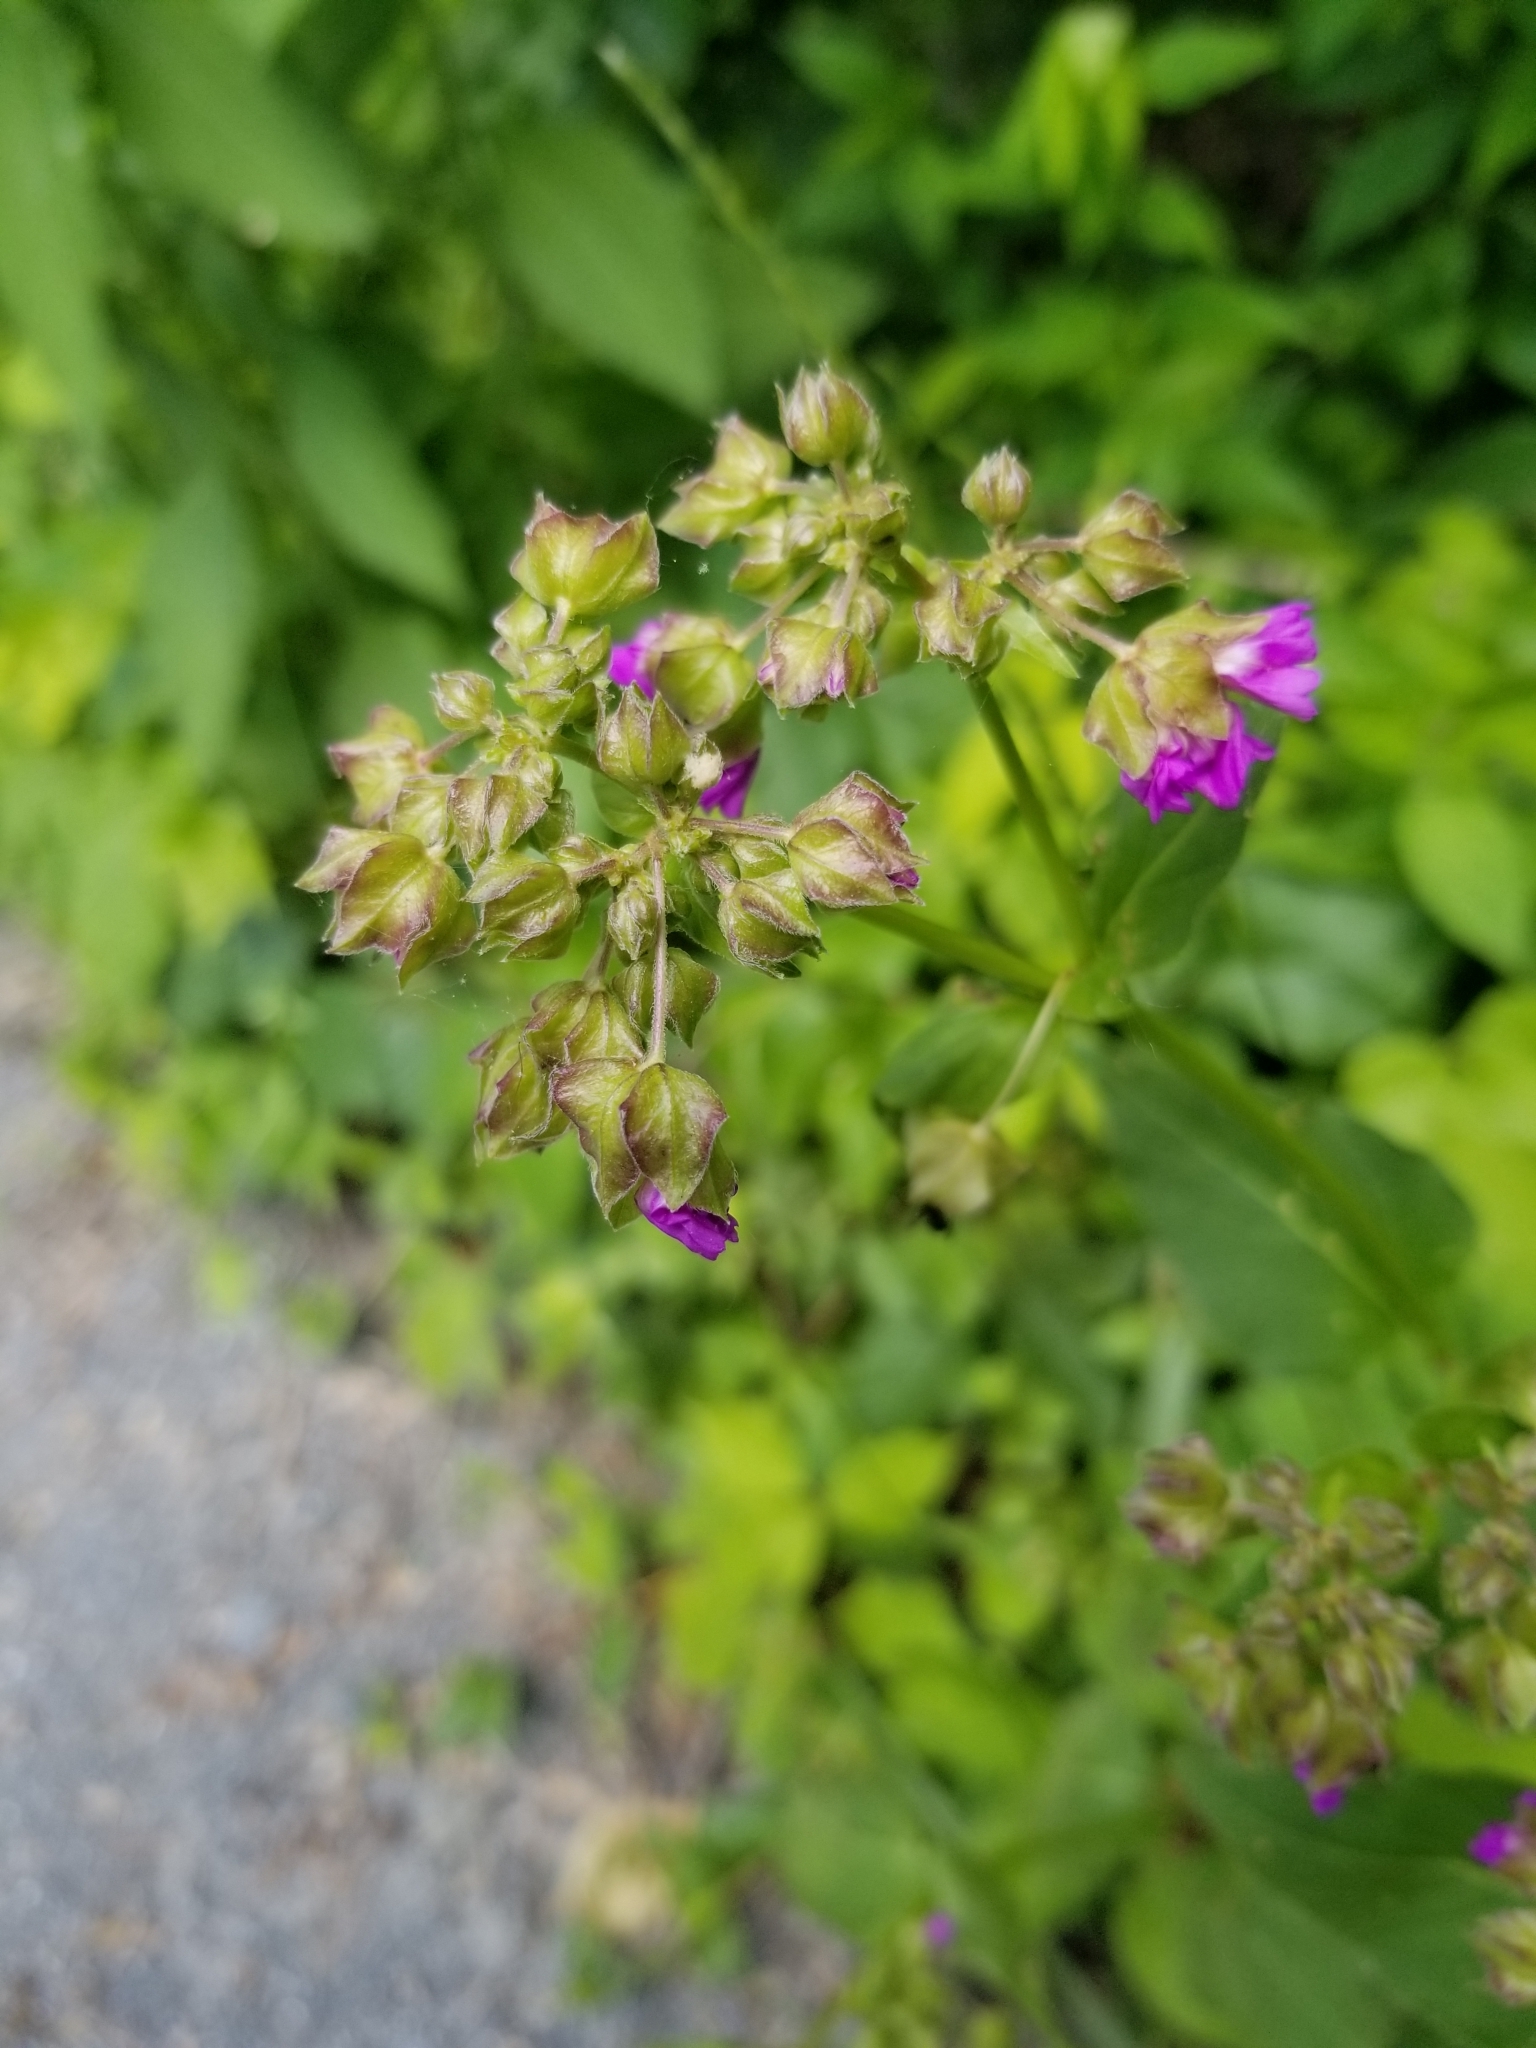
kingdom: Plantae
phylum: Tracheophyta
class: Magnoliopsida
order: Caryophyllales
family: Nyctaginaceae
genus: Mirabilis
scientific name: Mirabilis nyctaginea
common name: Umbrella wort
